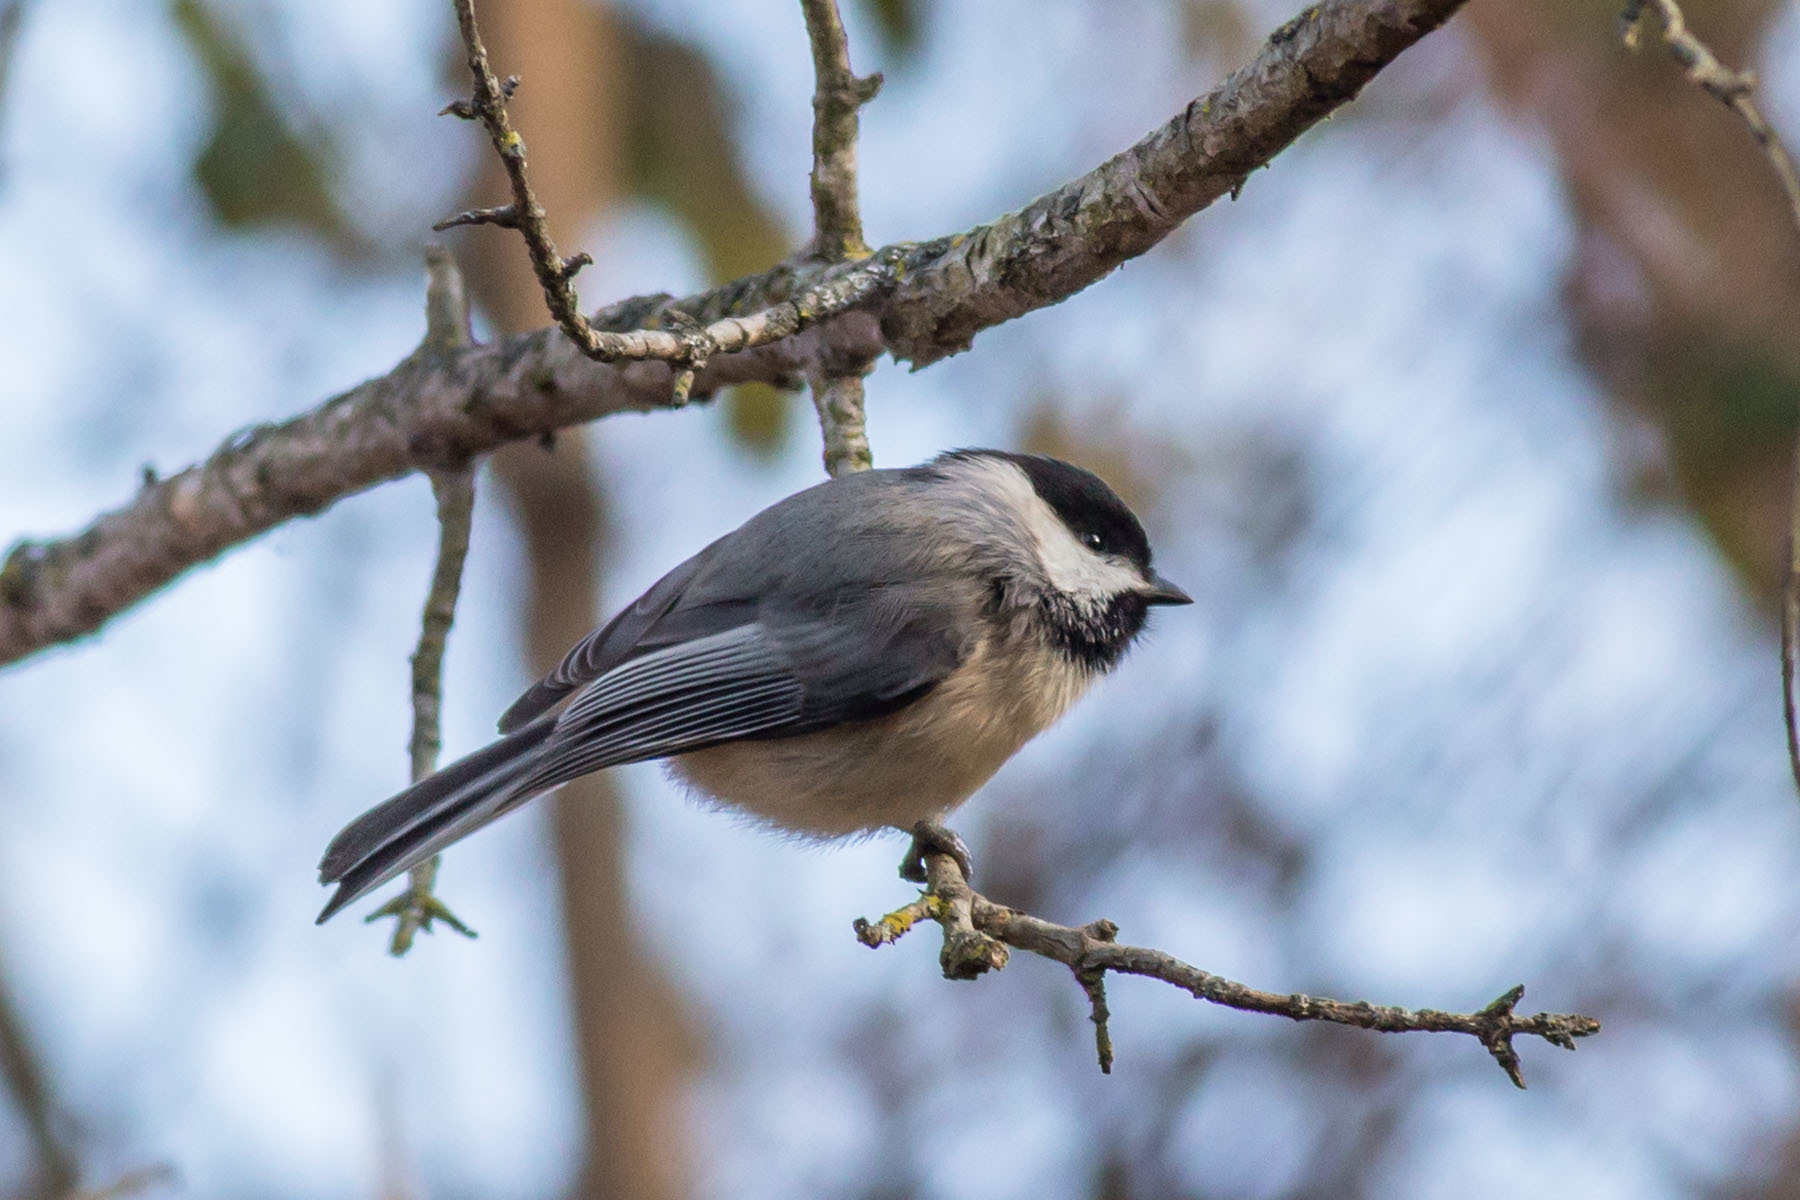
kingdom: Animalia
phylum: Chordata
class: Aves
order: Passeriformes
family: Paridae
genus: Poecile
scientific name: Poecile carolinensis
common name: Carolina chickadee
